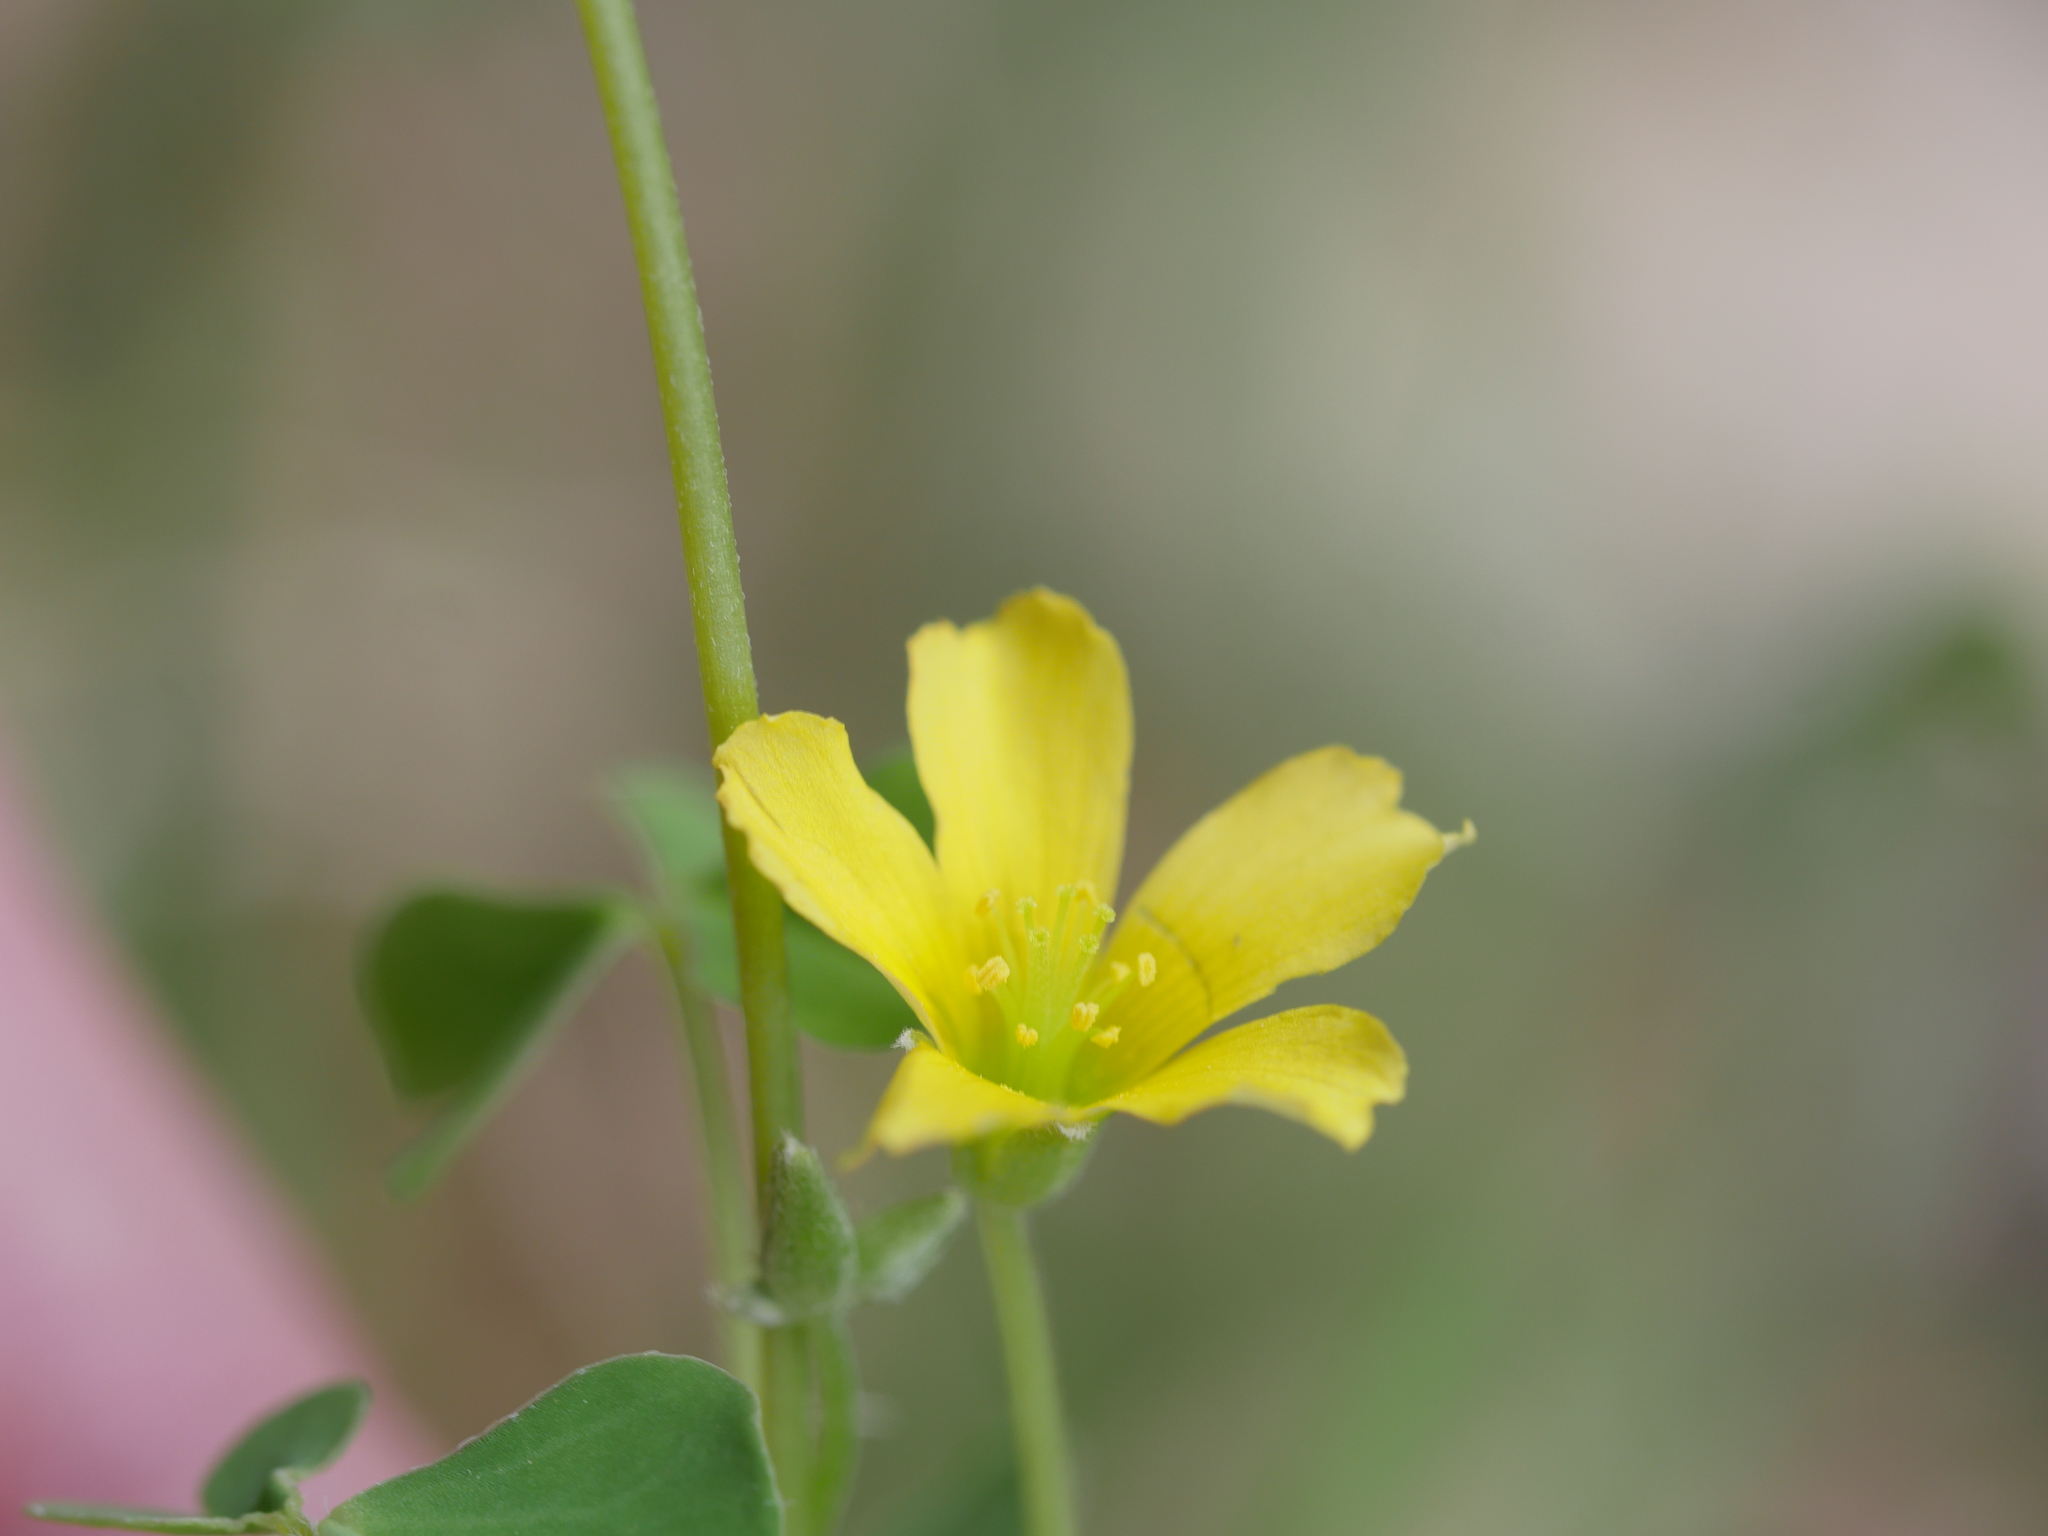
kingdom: Plantae
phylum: Tracheophyta
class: Magnoliopsida
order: Oxalidales
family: Oxalidaceae
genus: Oxalis
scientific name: Oxalis rubens
